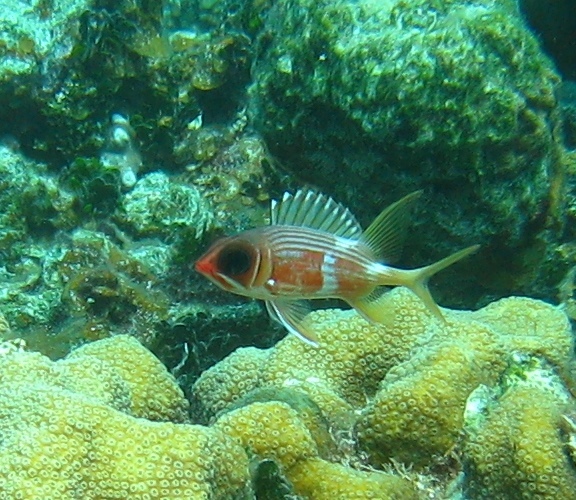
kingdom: Animalia
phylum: Chordata
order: Beryciformes
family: Holocentridae
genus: Holocentrus
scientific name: Holocentrus rufus
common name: Longspine squirrelfish
